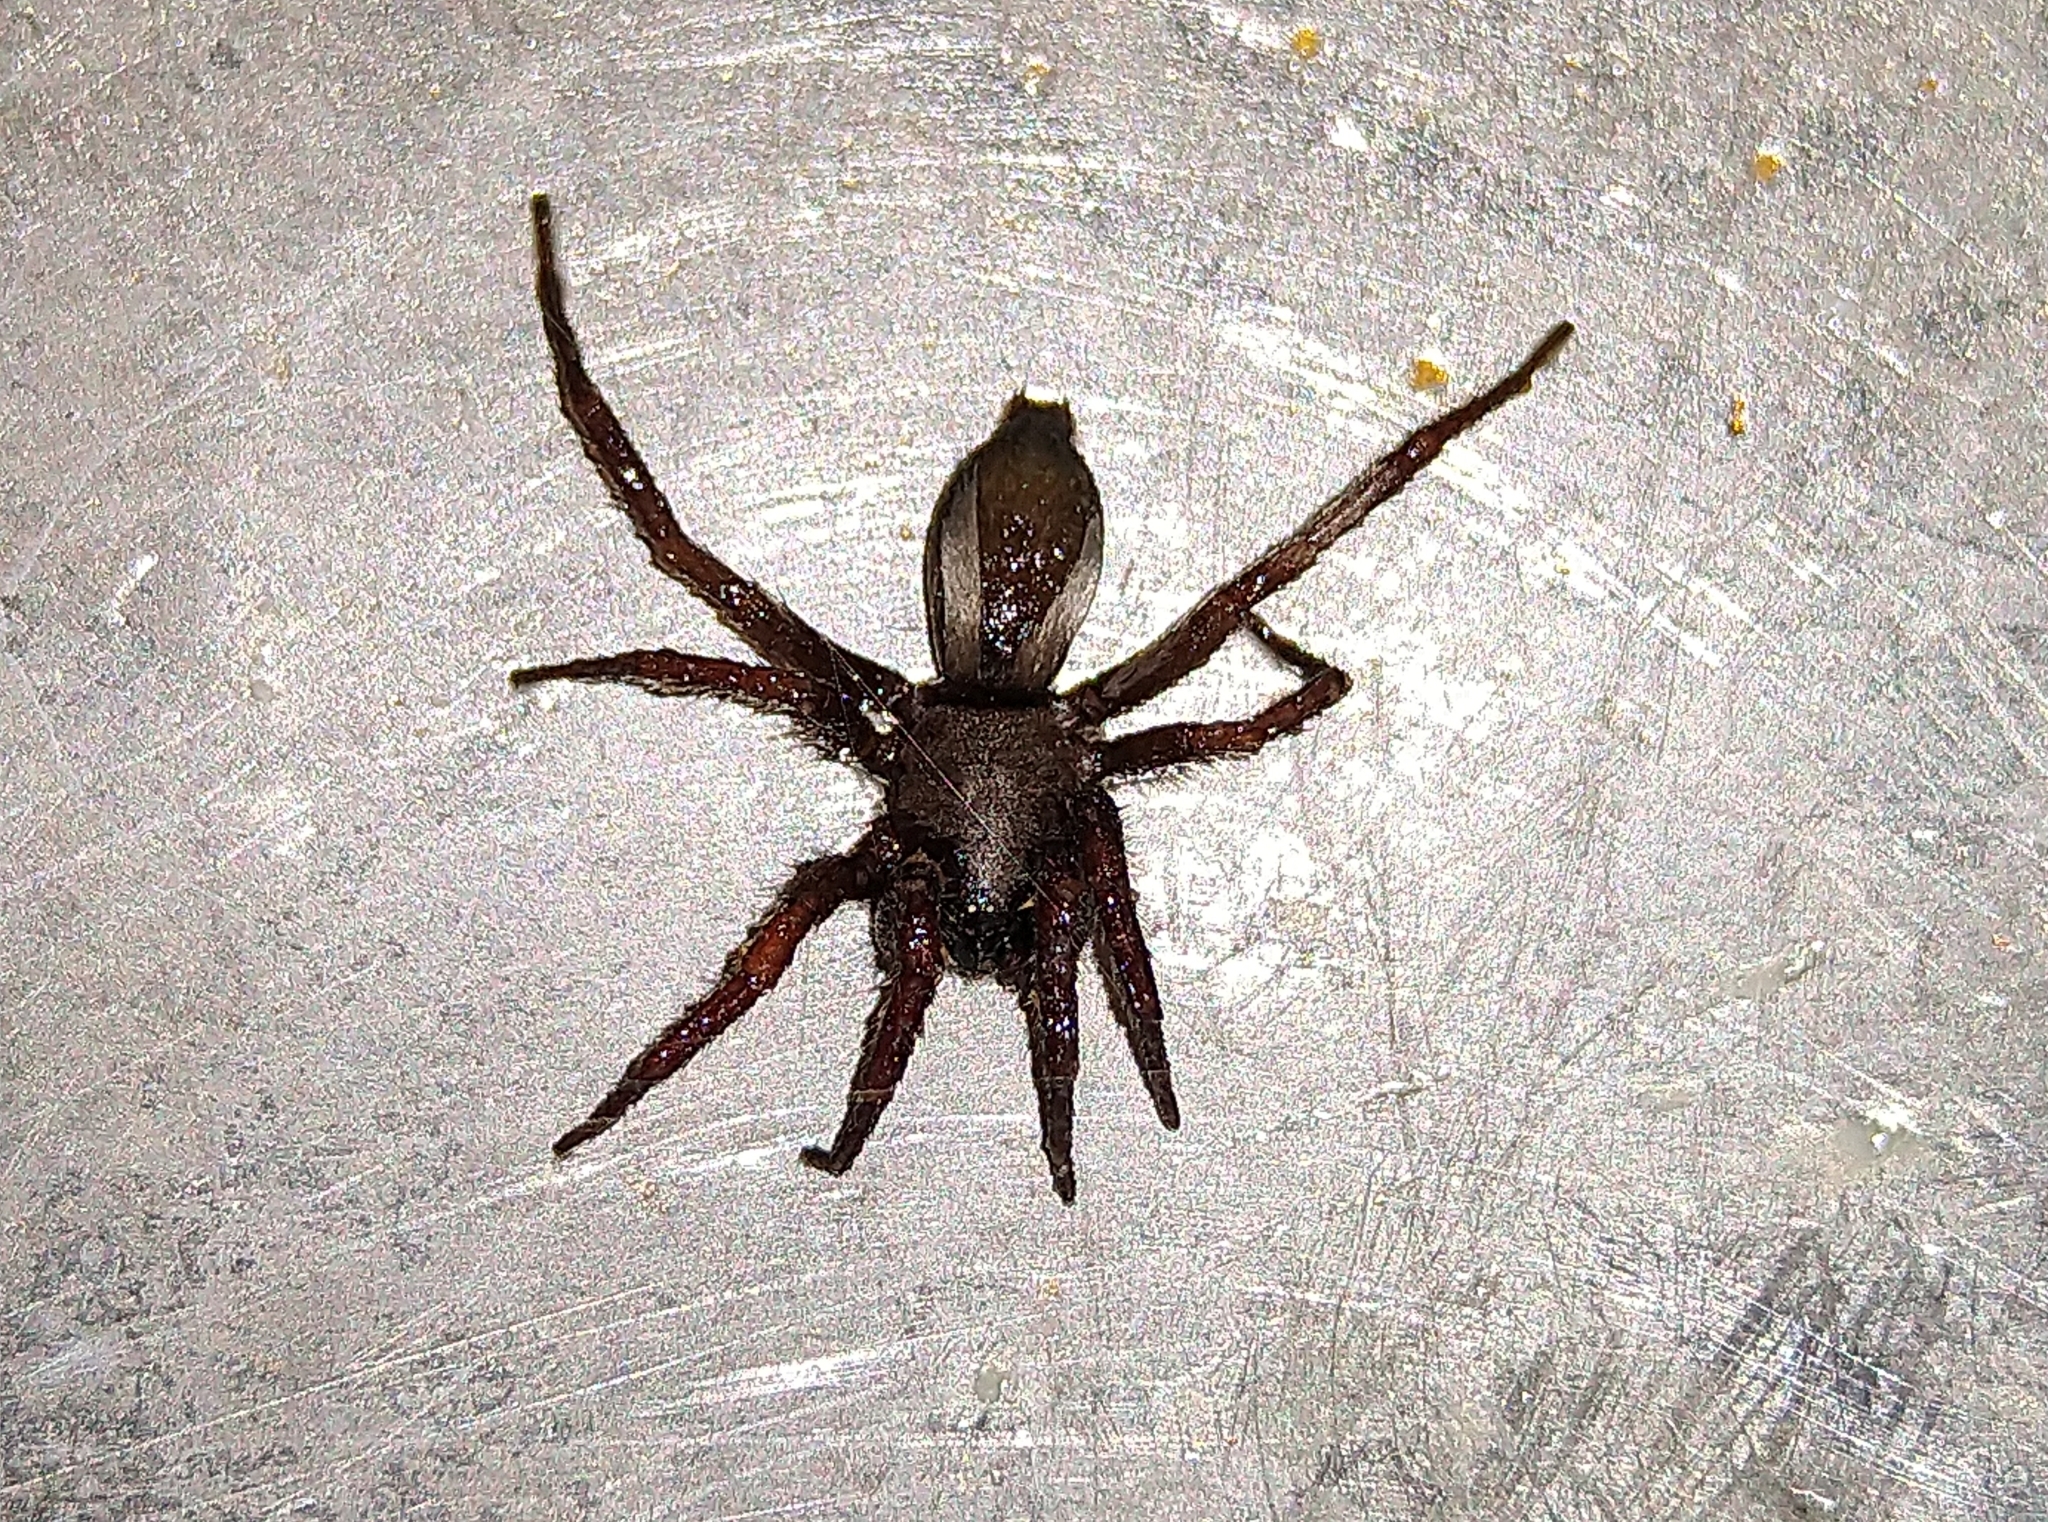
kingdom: Animalia
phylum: Arthropoda
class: Arachnida
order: Araneae
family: Gnaphosidae
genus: Scotophaeus
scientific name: Scotophaeus blackwalli
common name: Mouse spider
